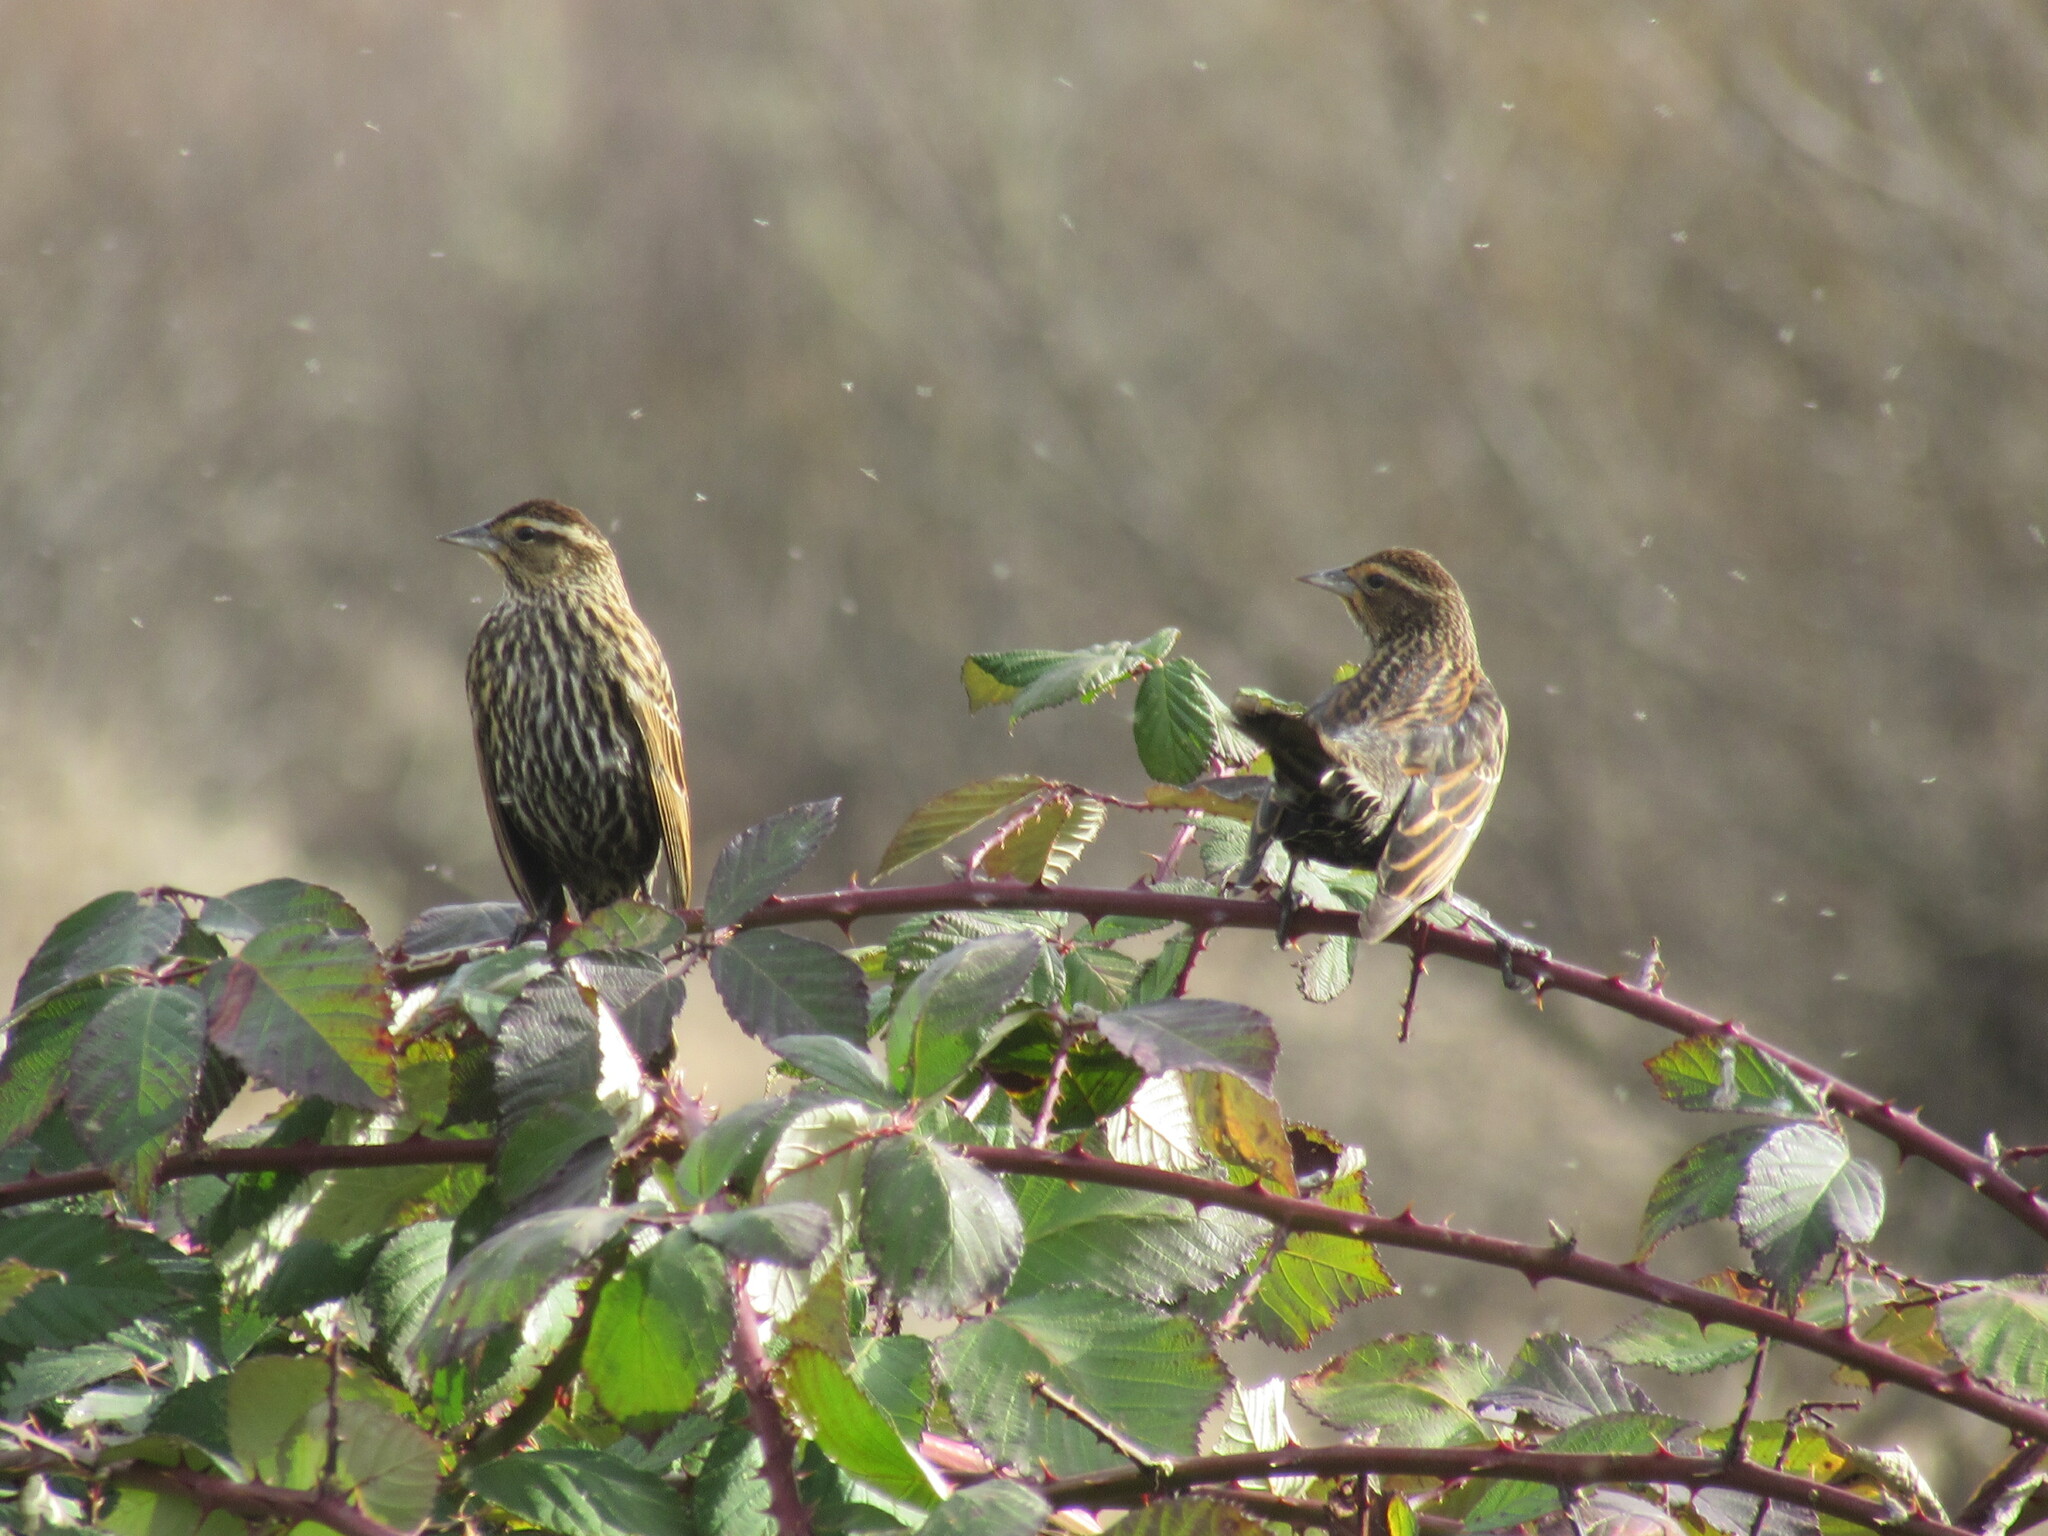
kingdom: Animalia
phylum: Chordata
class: Aves
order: Passeriformes
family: Icteridae
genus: Agelaius
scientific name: Agelaius phoeniceus
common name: Red-winged blackbird
